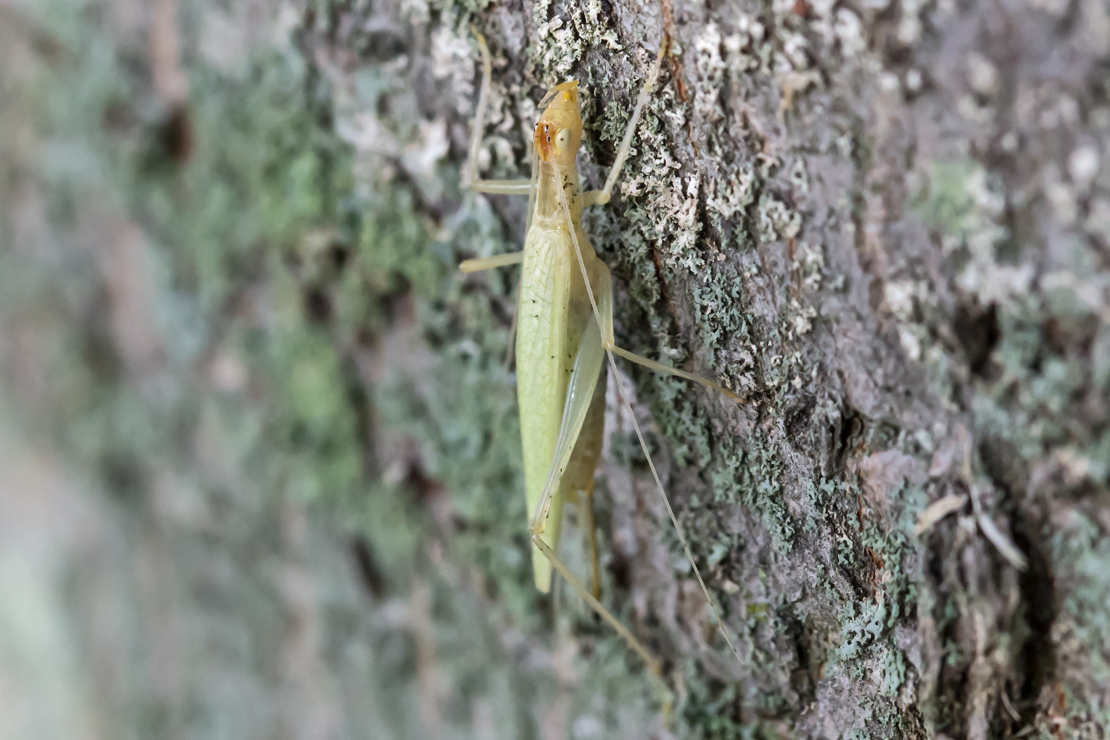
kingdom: Animalia
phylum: Arthropoda
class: Insecta
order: Orthoptera
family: Gryllidae
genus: Oecanthus
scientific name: Oecanthus niveus
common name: Narrow-winged tree cricket
